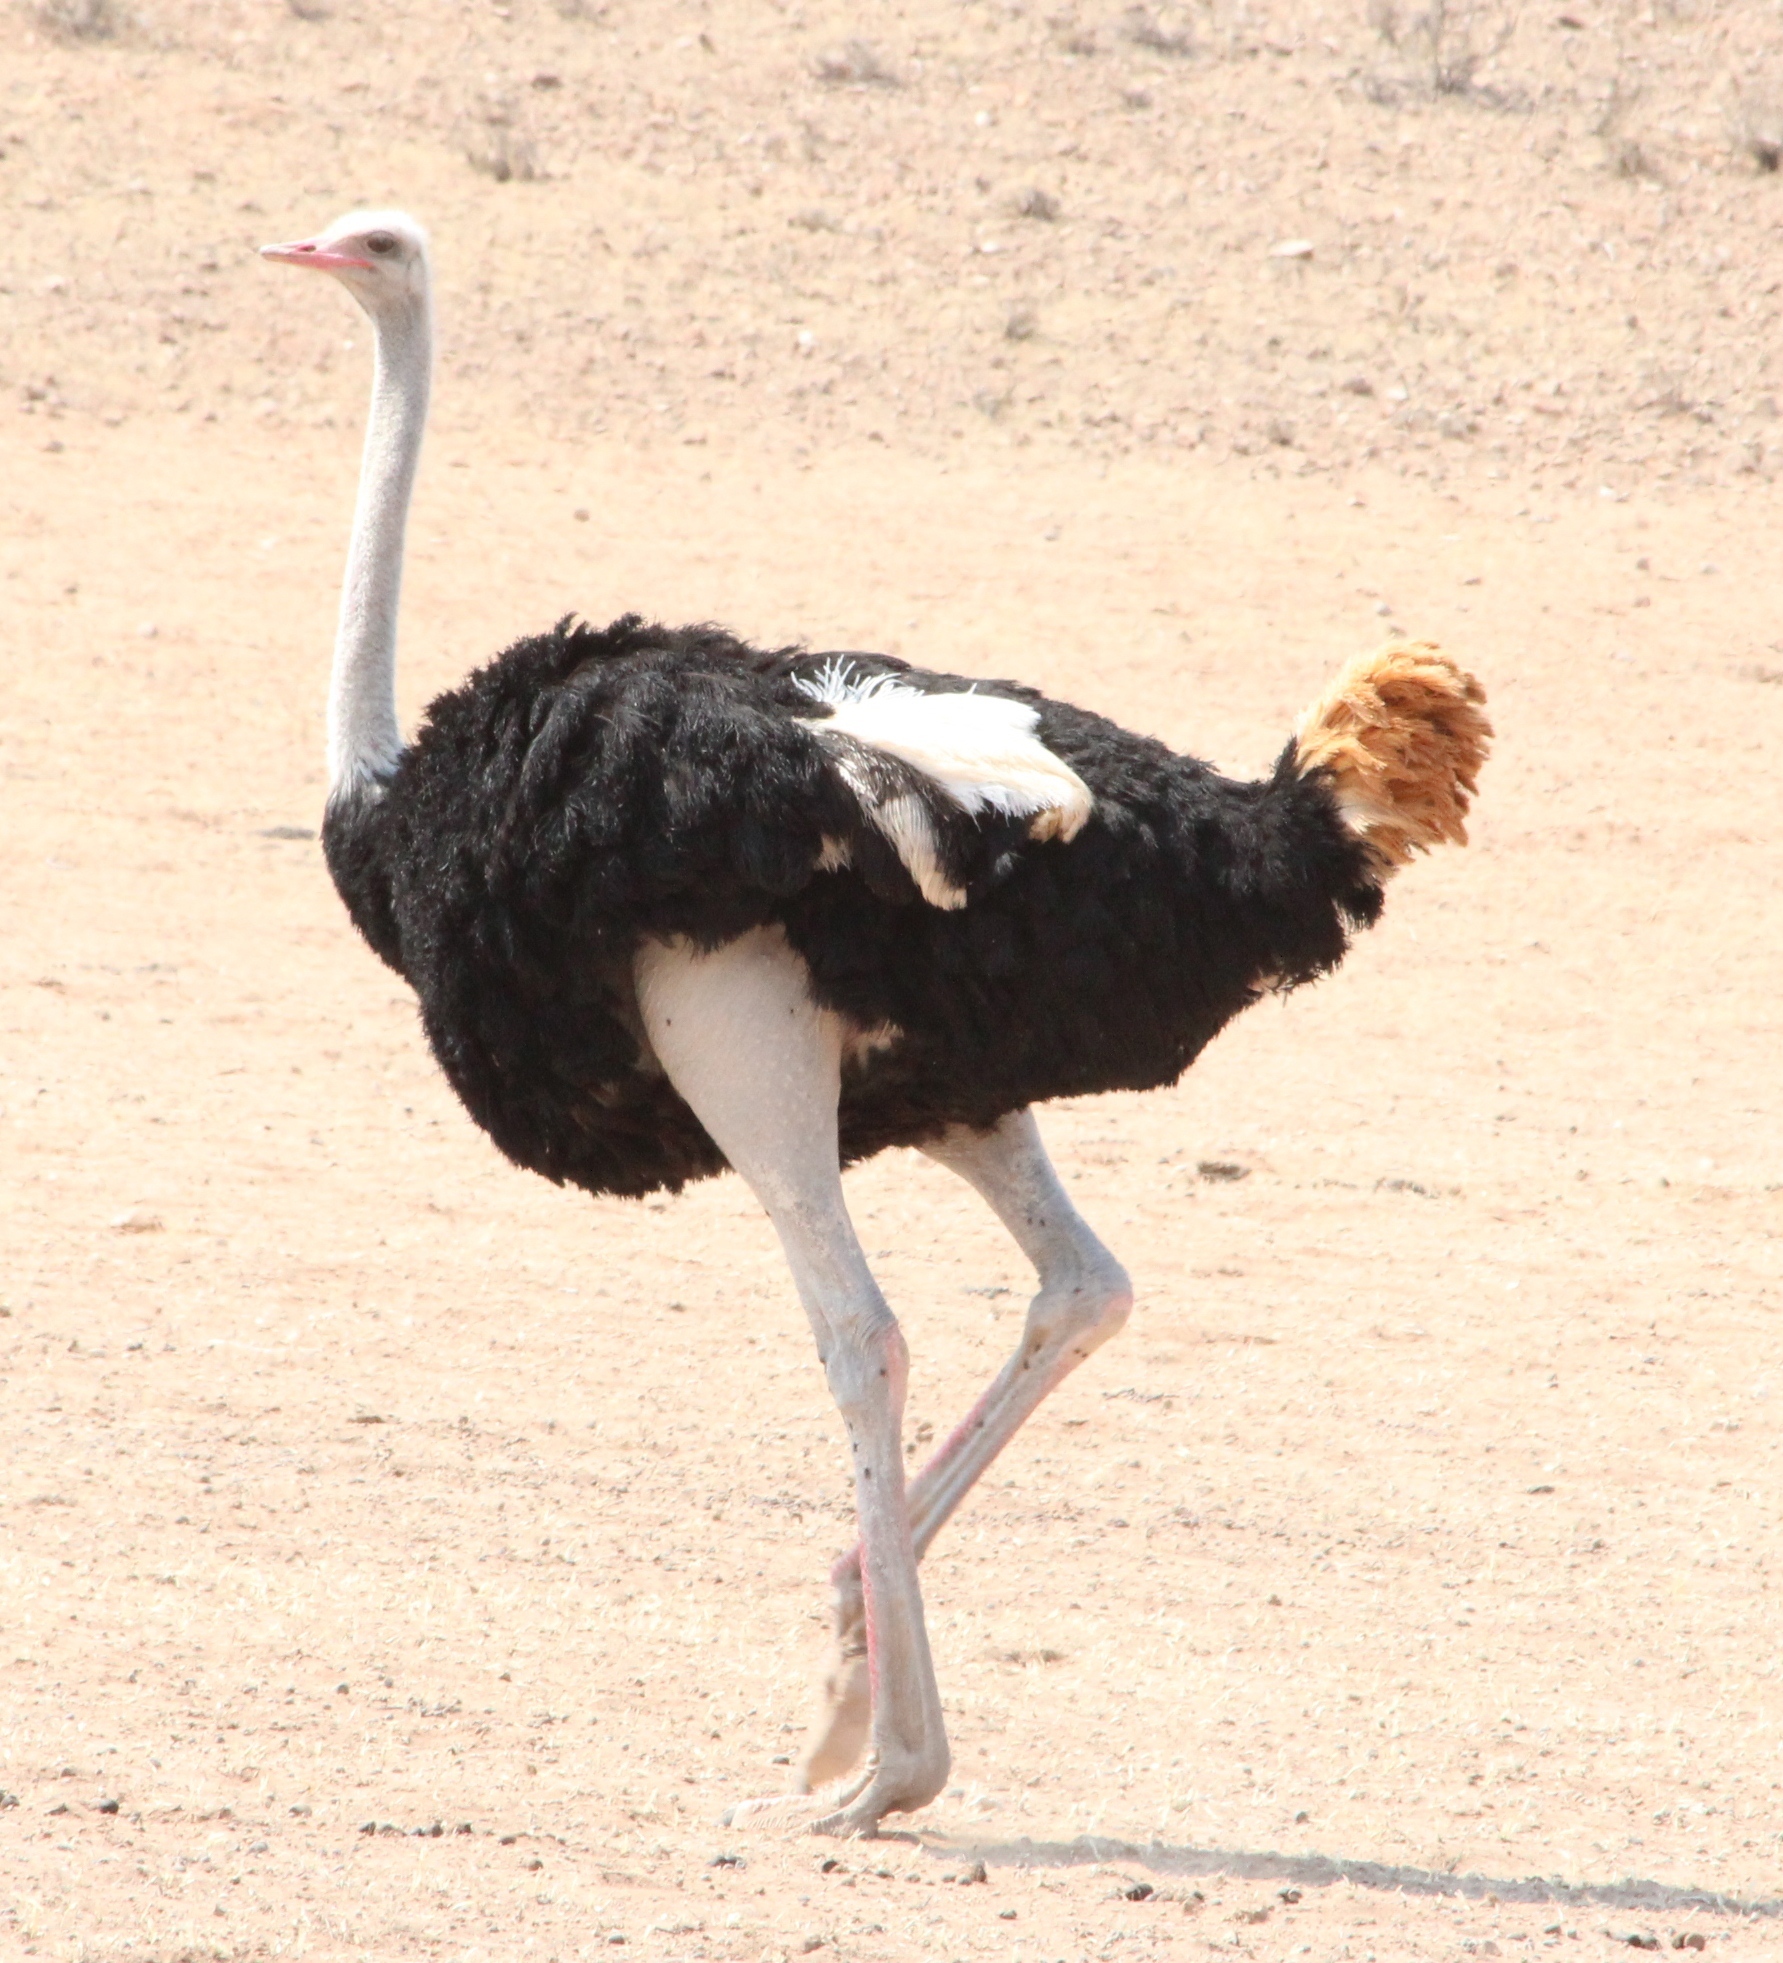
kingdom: Animalia
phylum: Chordata
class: Aves
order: Struthioniformes
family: Struthionidae
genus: Struthio
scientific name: Struthio camelus
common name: Common ostrich
